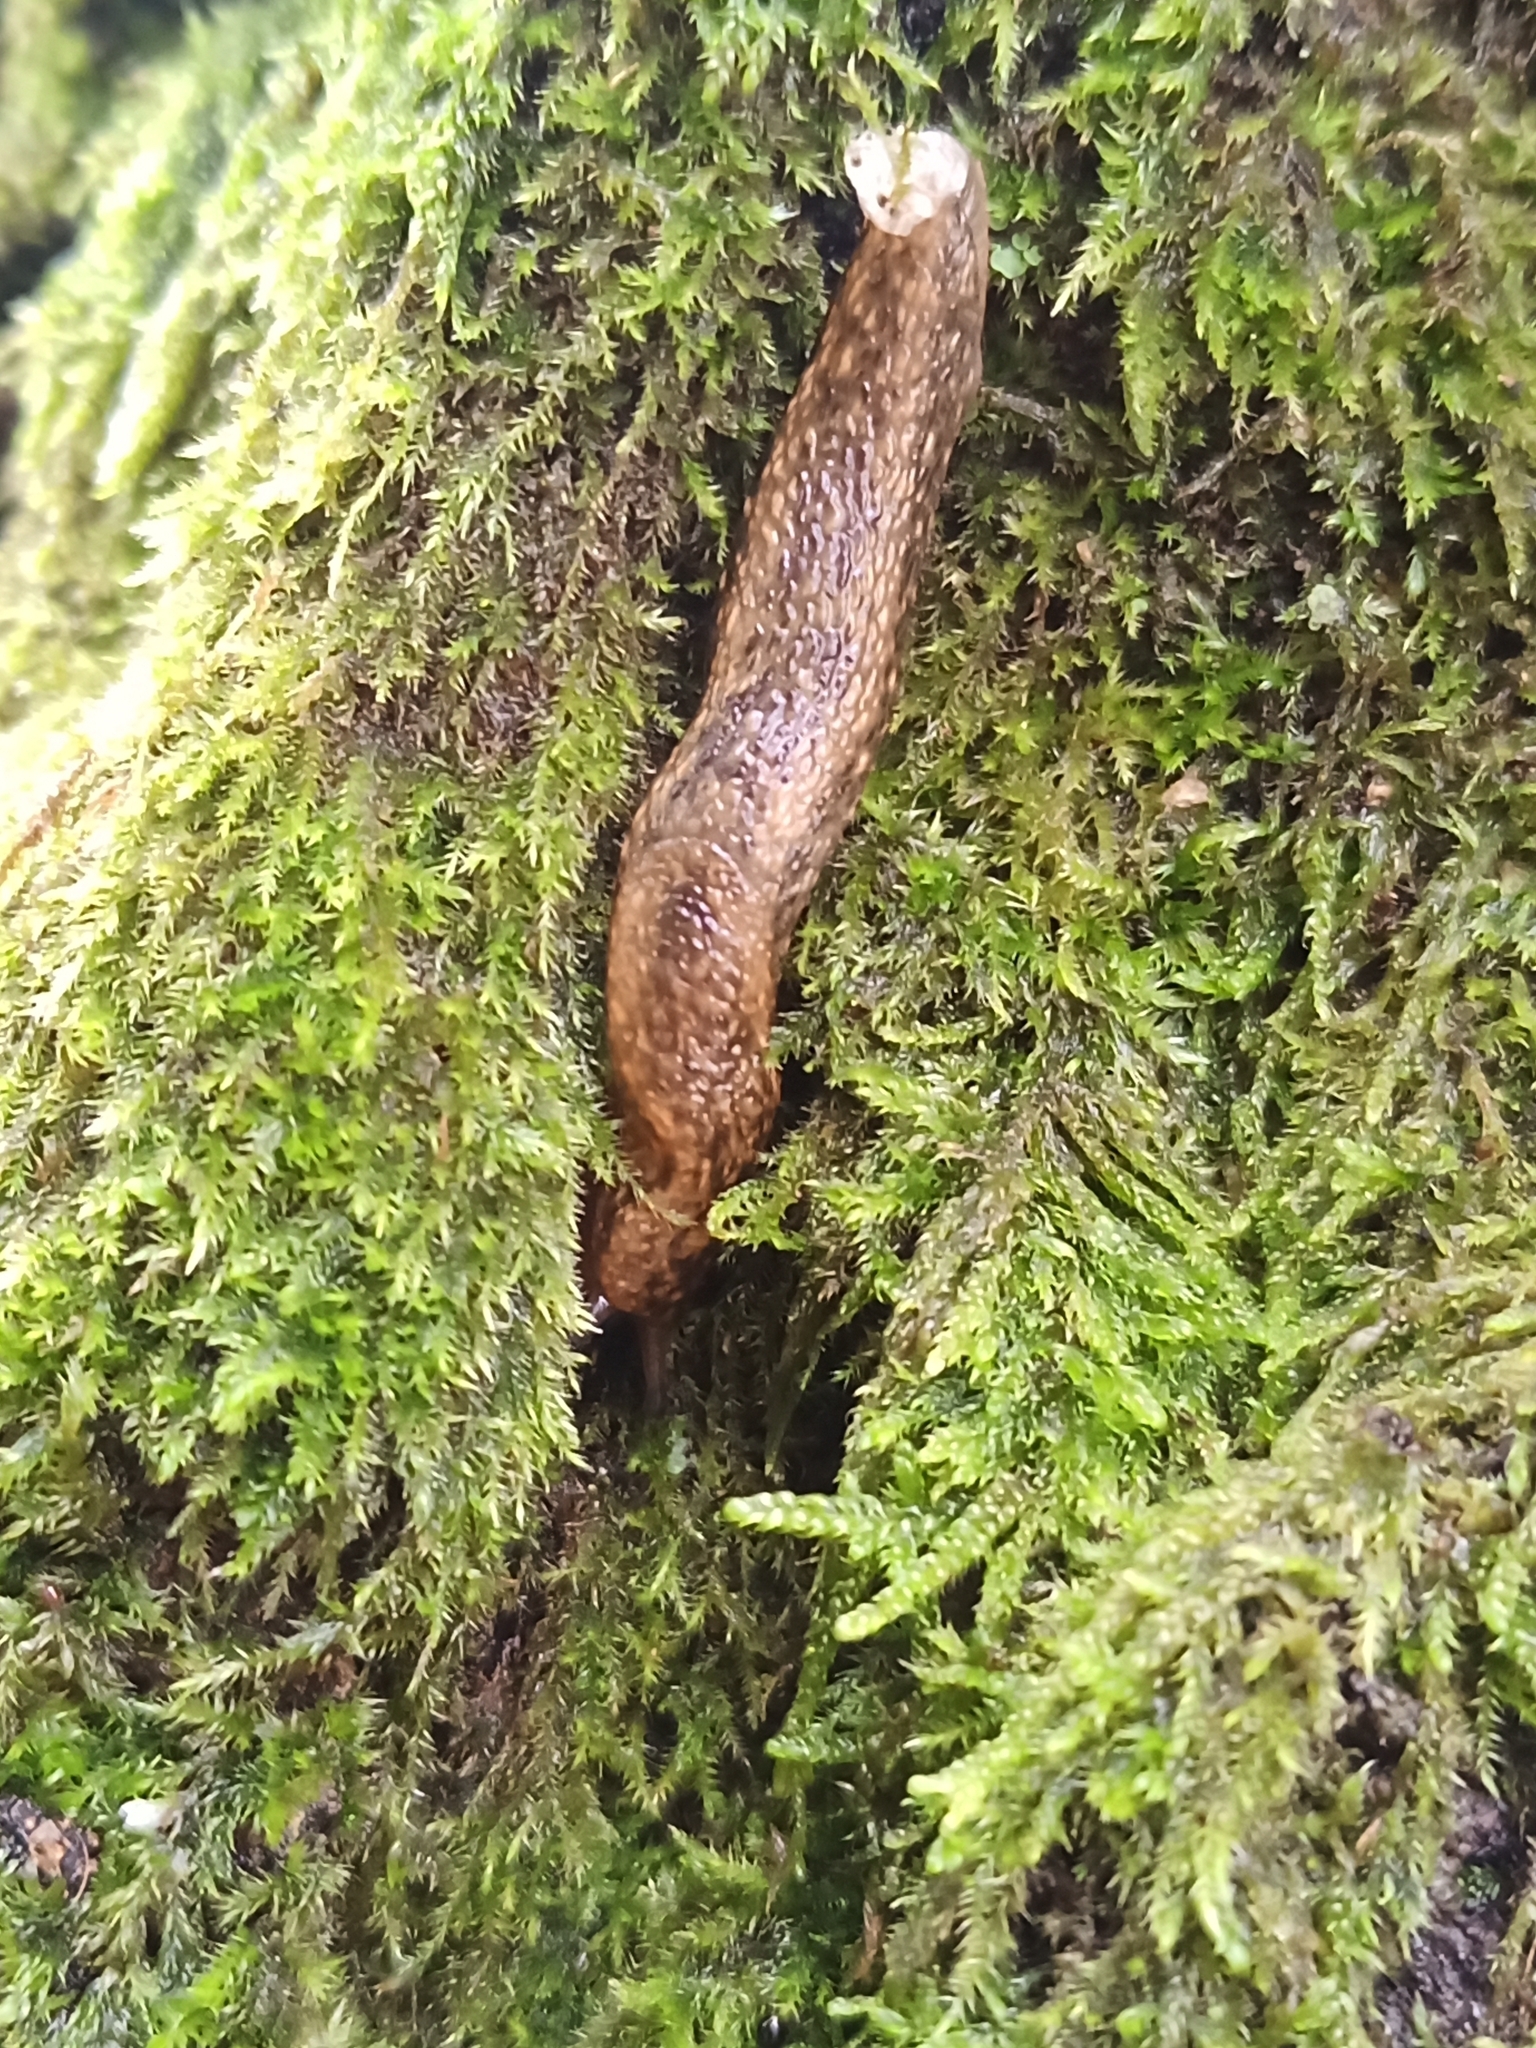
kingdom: Animalia
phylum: Mollusca
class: Gastropoda
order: Stylommatophora
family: Arionidae
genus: Geomalacus
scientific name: Geomalacus maculosus
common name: Kerry slug
